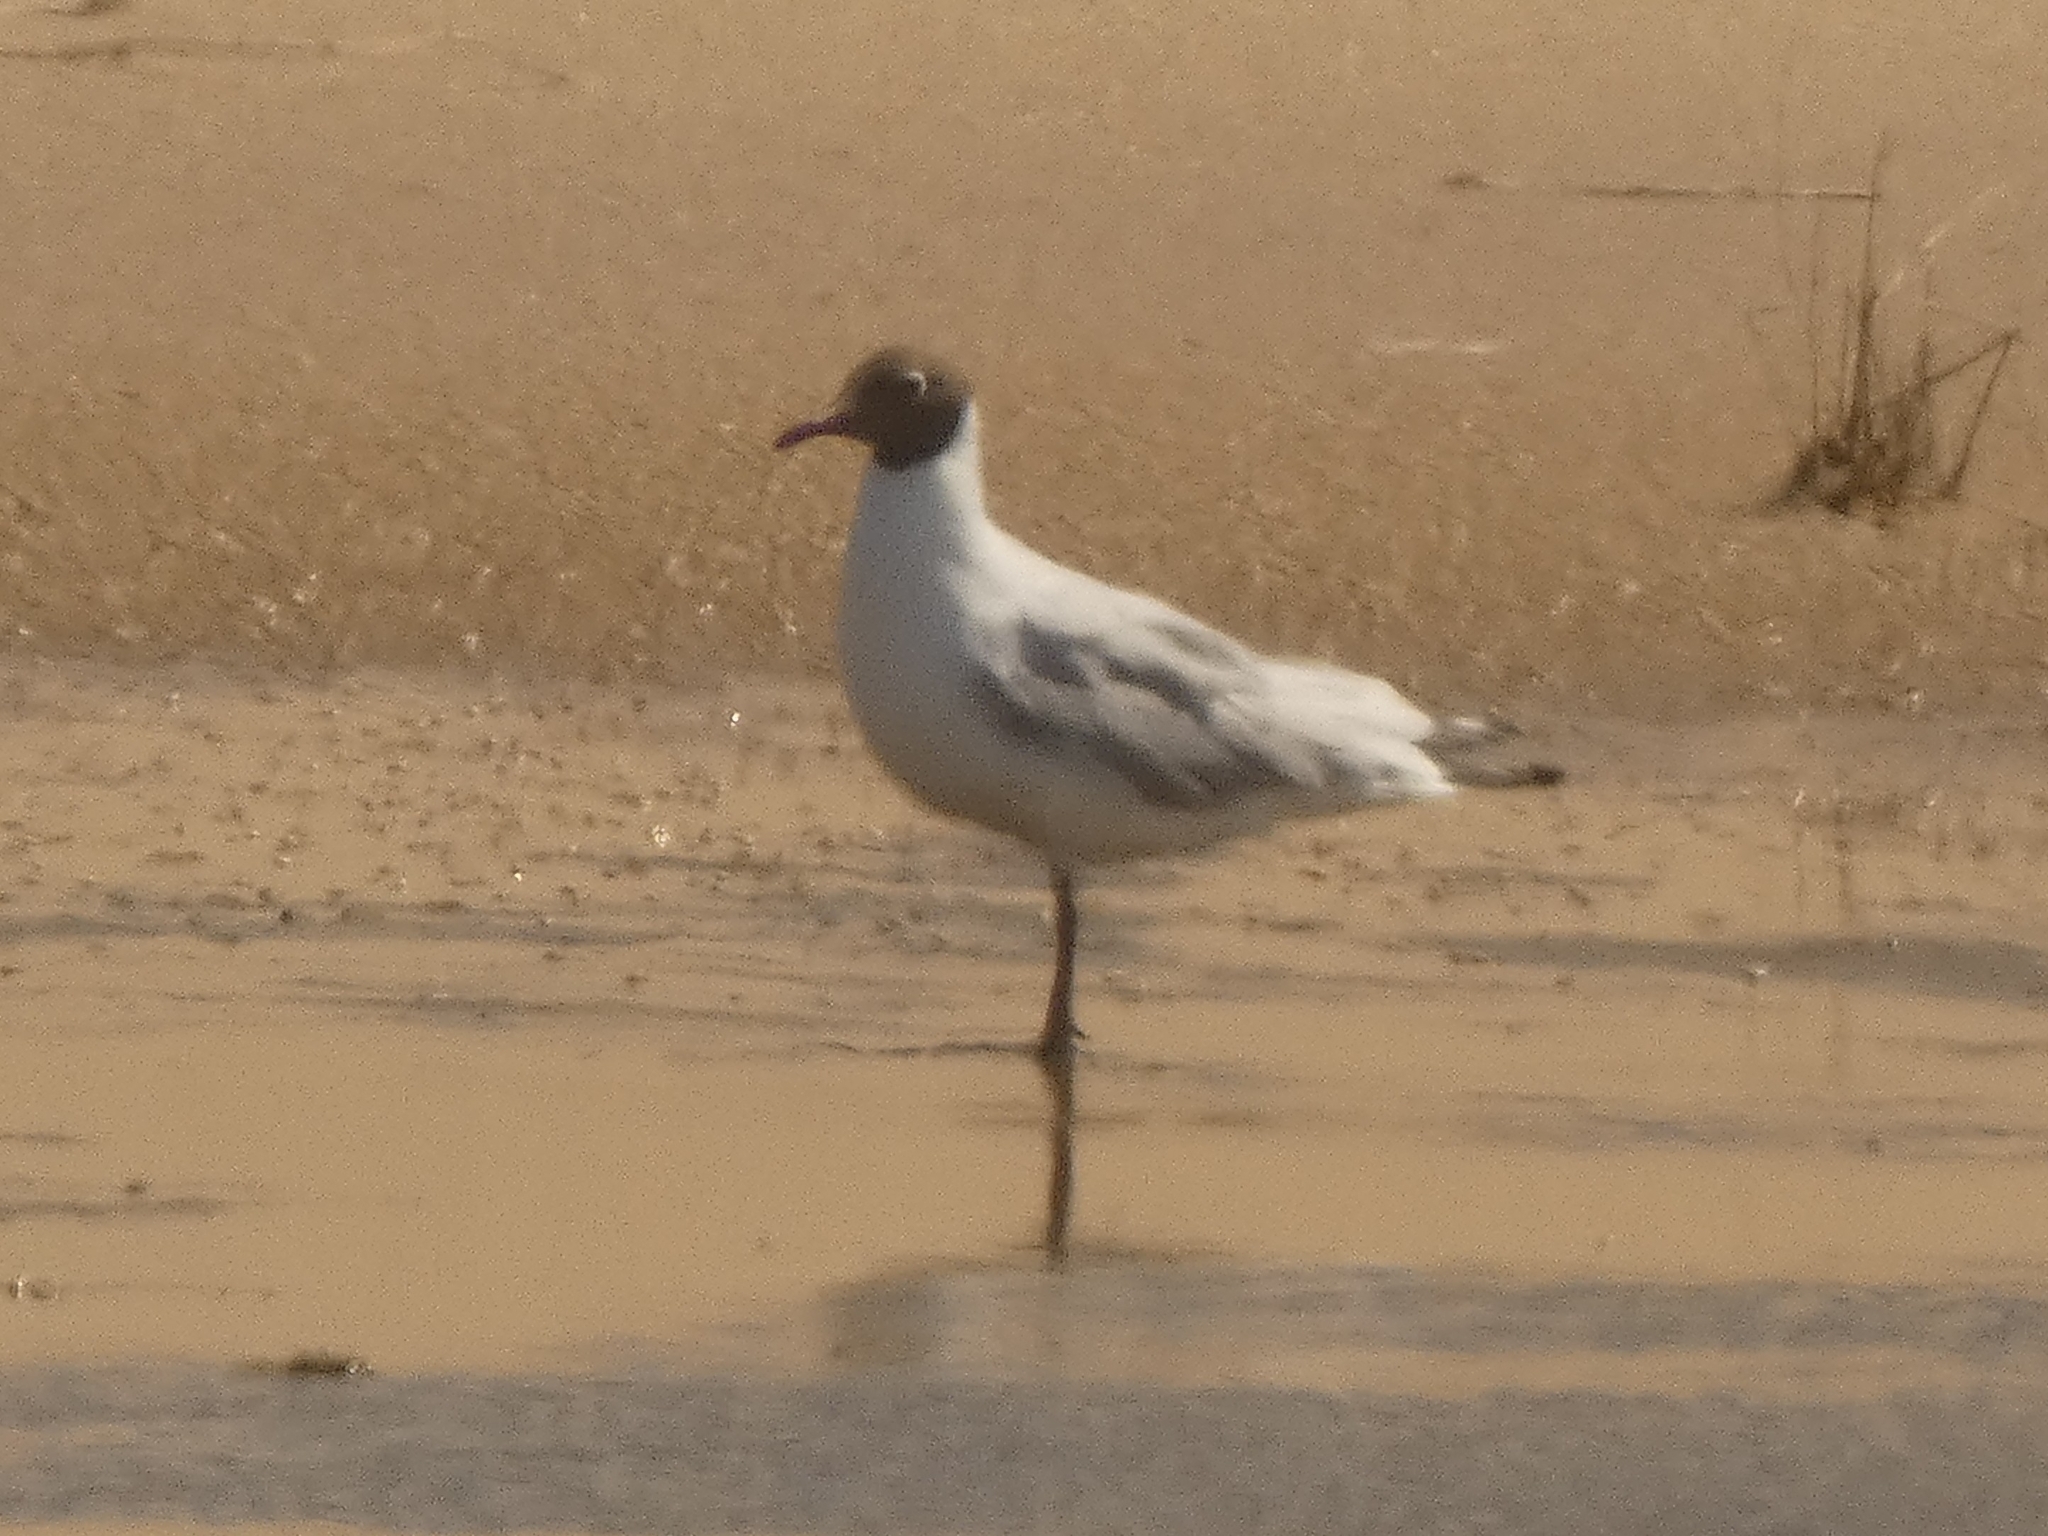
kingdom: Animalia
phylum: Chordata
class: Aves
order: Charadriiformes
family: Laridae
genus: Chroicocephalus
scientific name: Chroicocephalus maculipennis
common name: Brown-hooded gull
